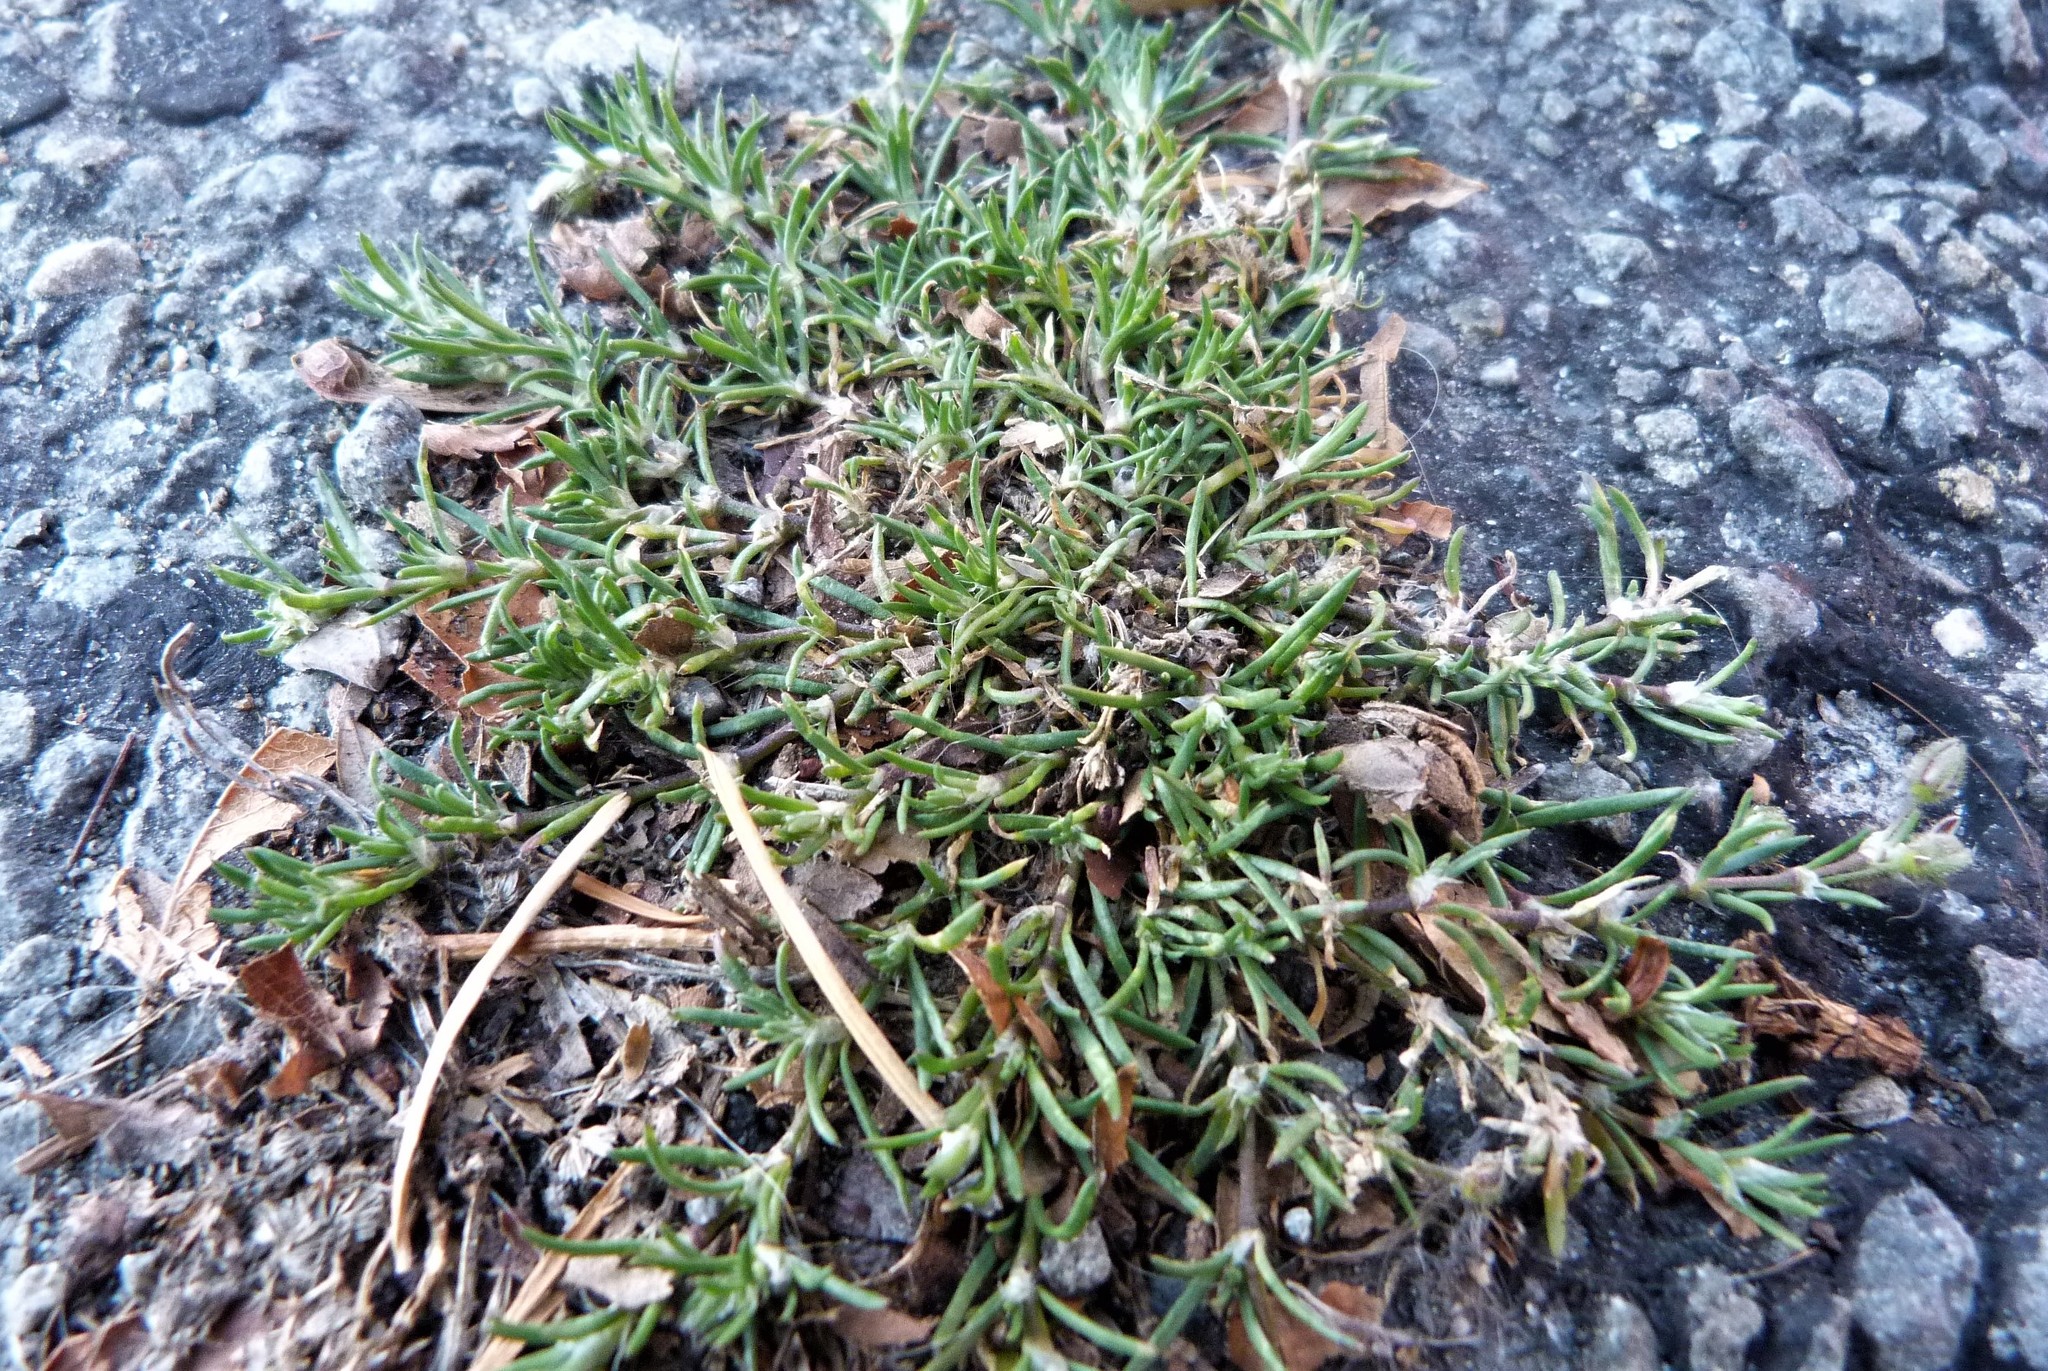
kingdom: Plantae
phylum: Tracheophyta
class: Magnoliopsida
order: Caryophyllales
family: Caryophyllaceae
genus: Spergularia
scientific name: Spergularia rubra
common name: Red sand-spurrey
